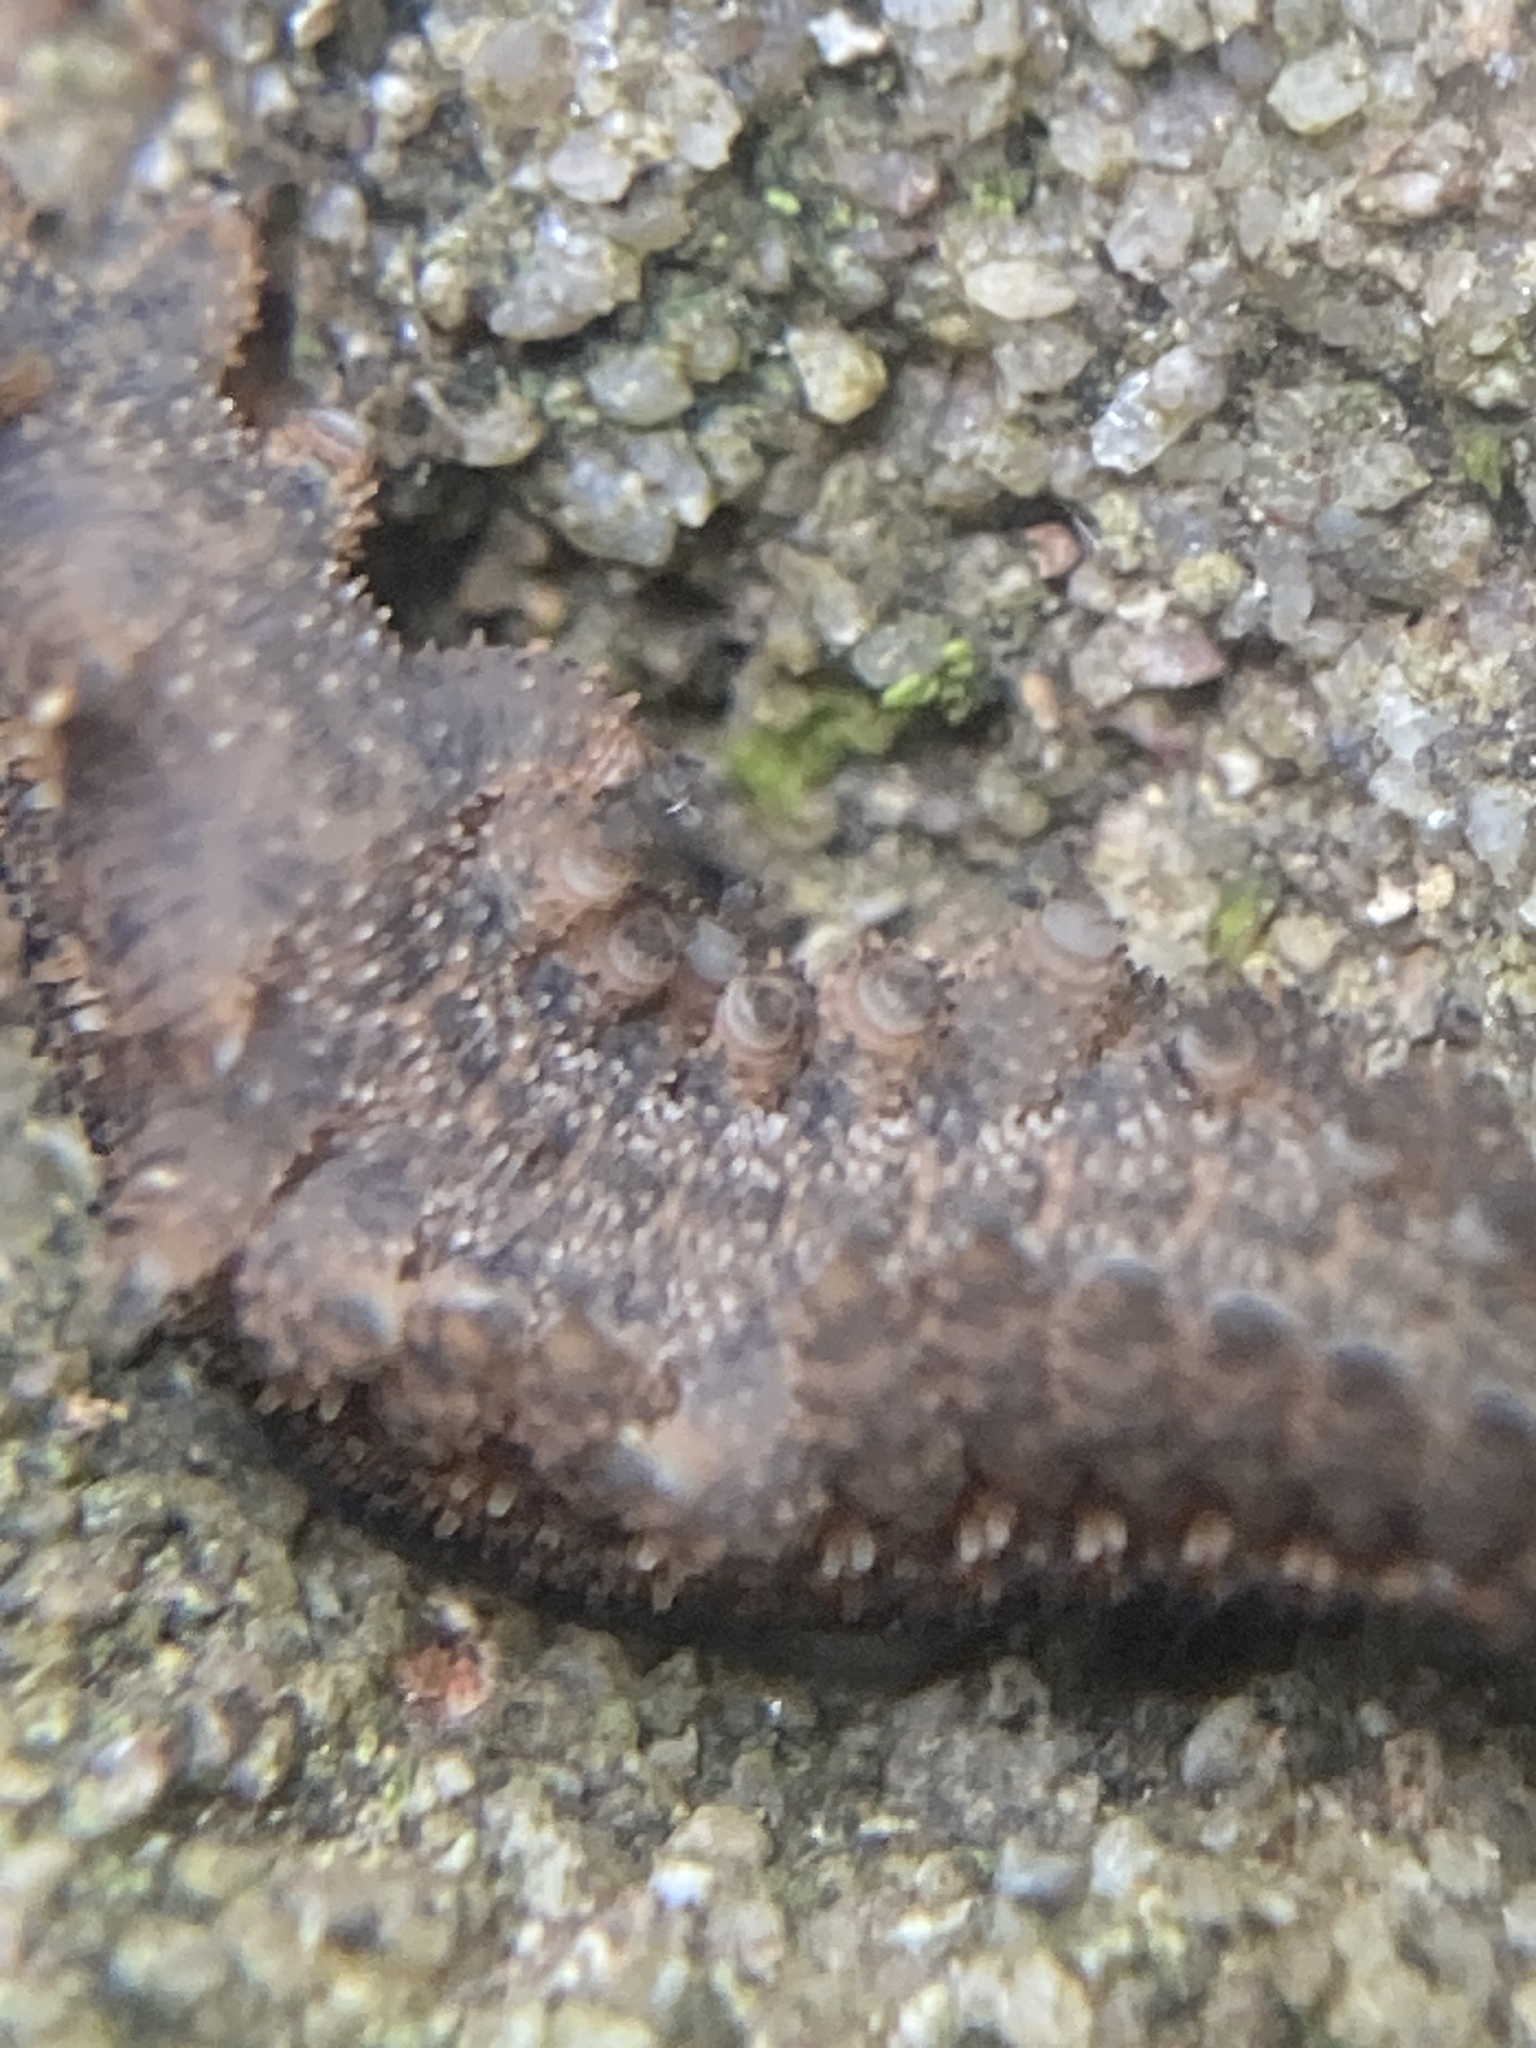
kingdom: Animalia
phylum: Onychophora
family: Peripatopsidae
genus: Anoplokaros
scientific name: Anoplokaros keerensis
